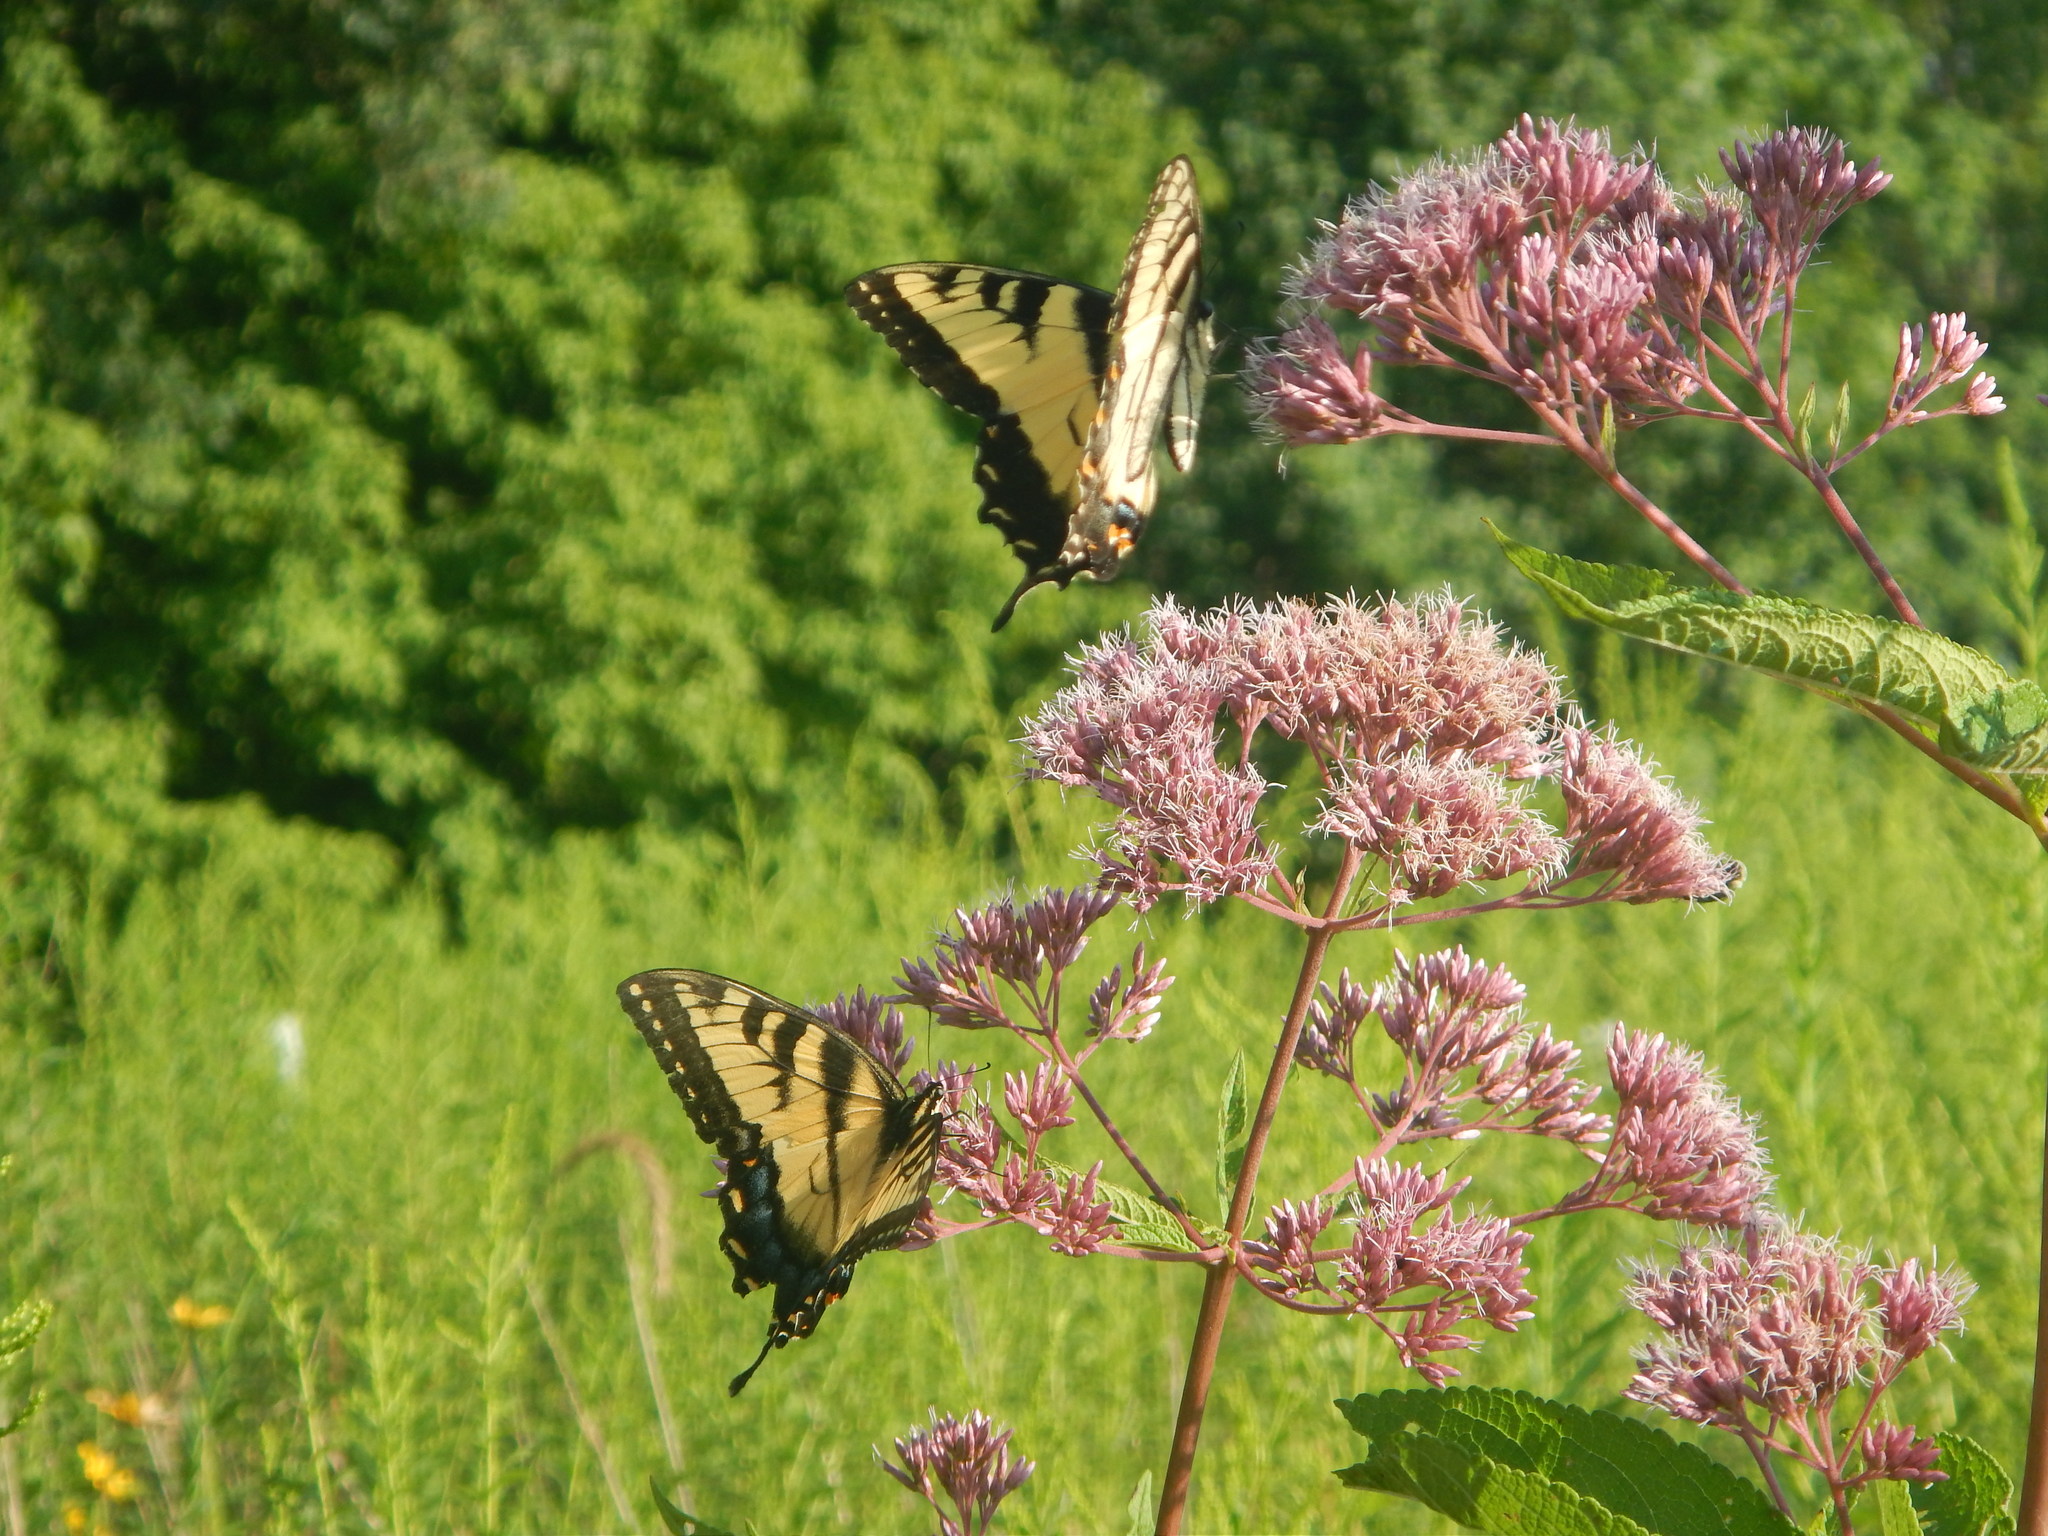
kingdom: Animalia
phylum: Arthropoda
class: Insecta
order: Lepidoptera
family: Papilionidae
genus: Papilio
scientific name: Papilio glaucus
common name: Tiger swallowtail
